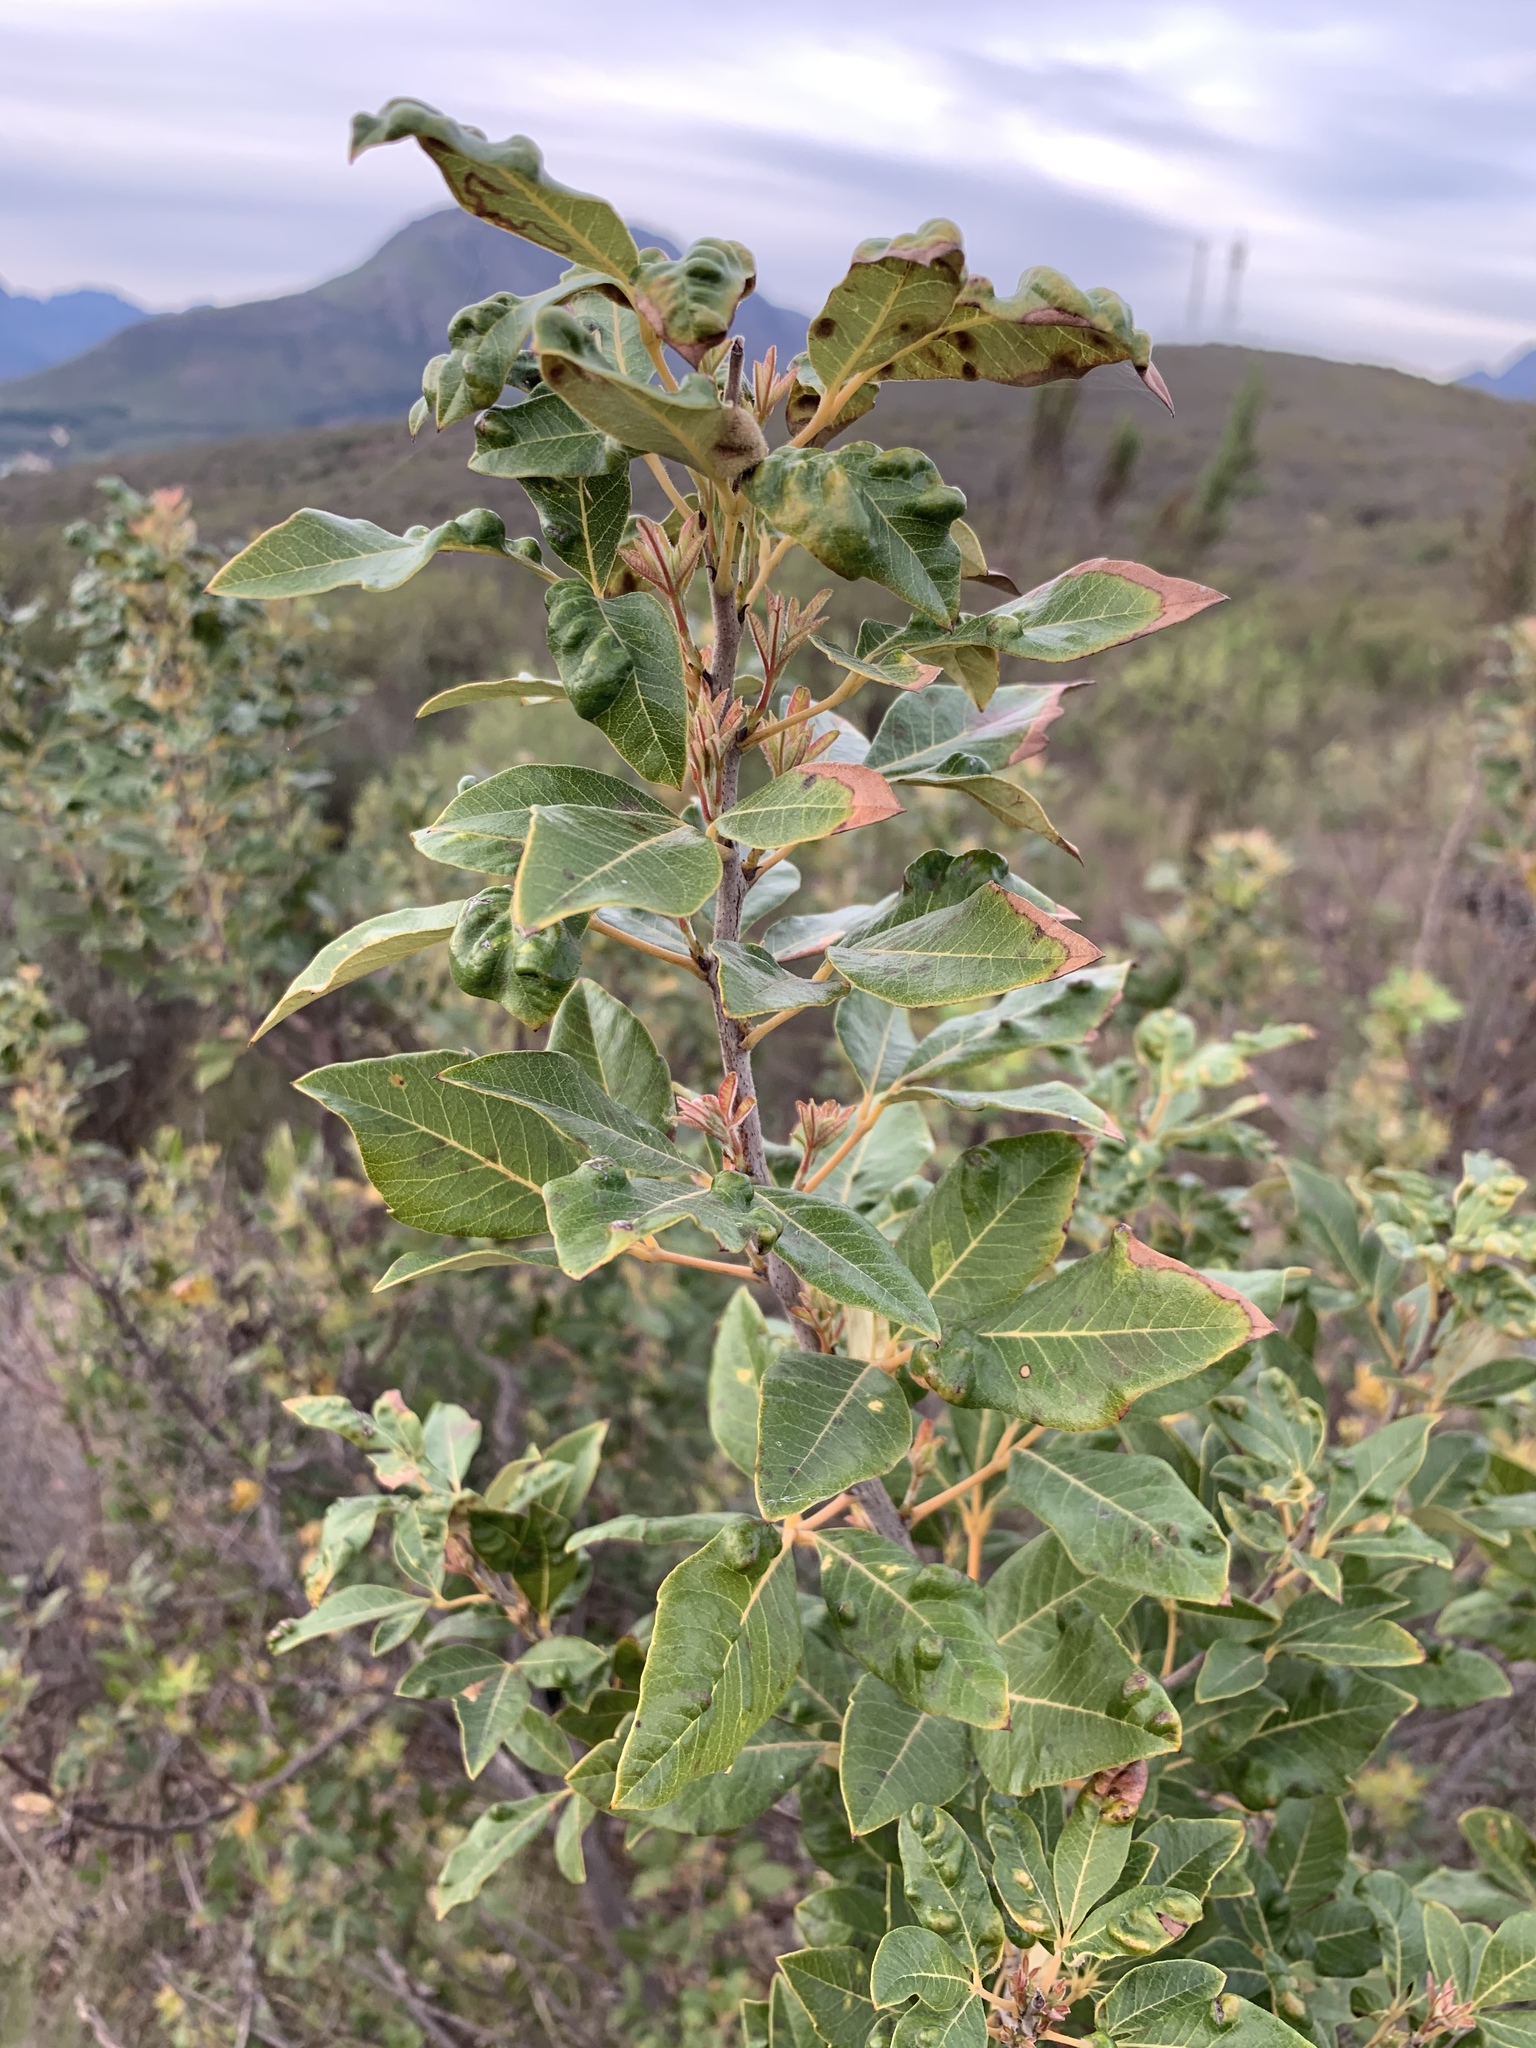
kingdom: Plantae
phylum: Tracheophyta
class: Magnoliopsida
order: Sapindales
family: Anacardiaceae
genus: Searsia
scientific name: Searsia tomentosa
